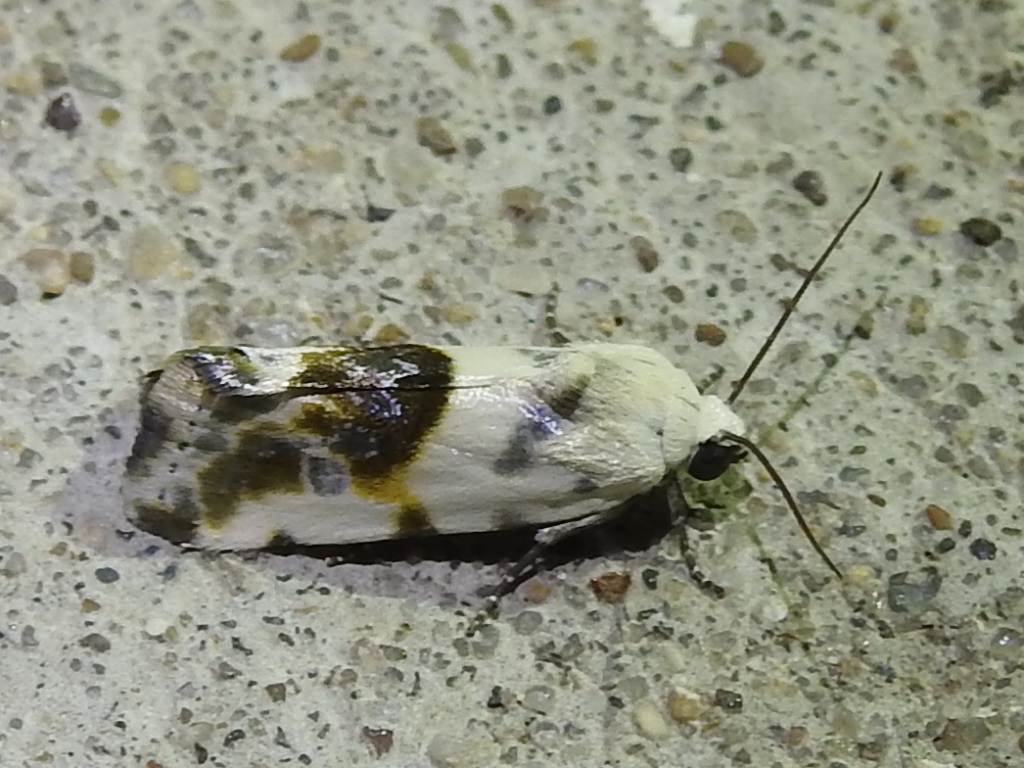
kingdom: Animalia
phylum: Arthropoda
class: Insecta
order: Lepidoptera
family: Noctuidae
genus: Acontia
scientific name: Acontia candefacta
